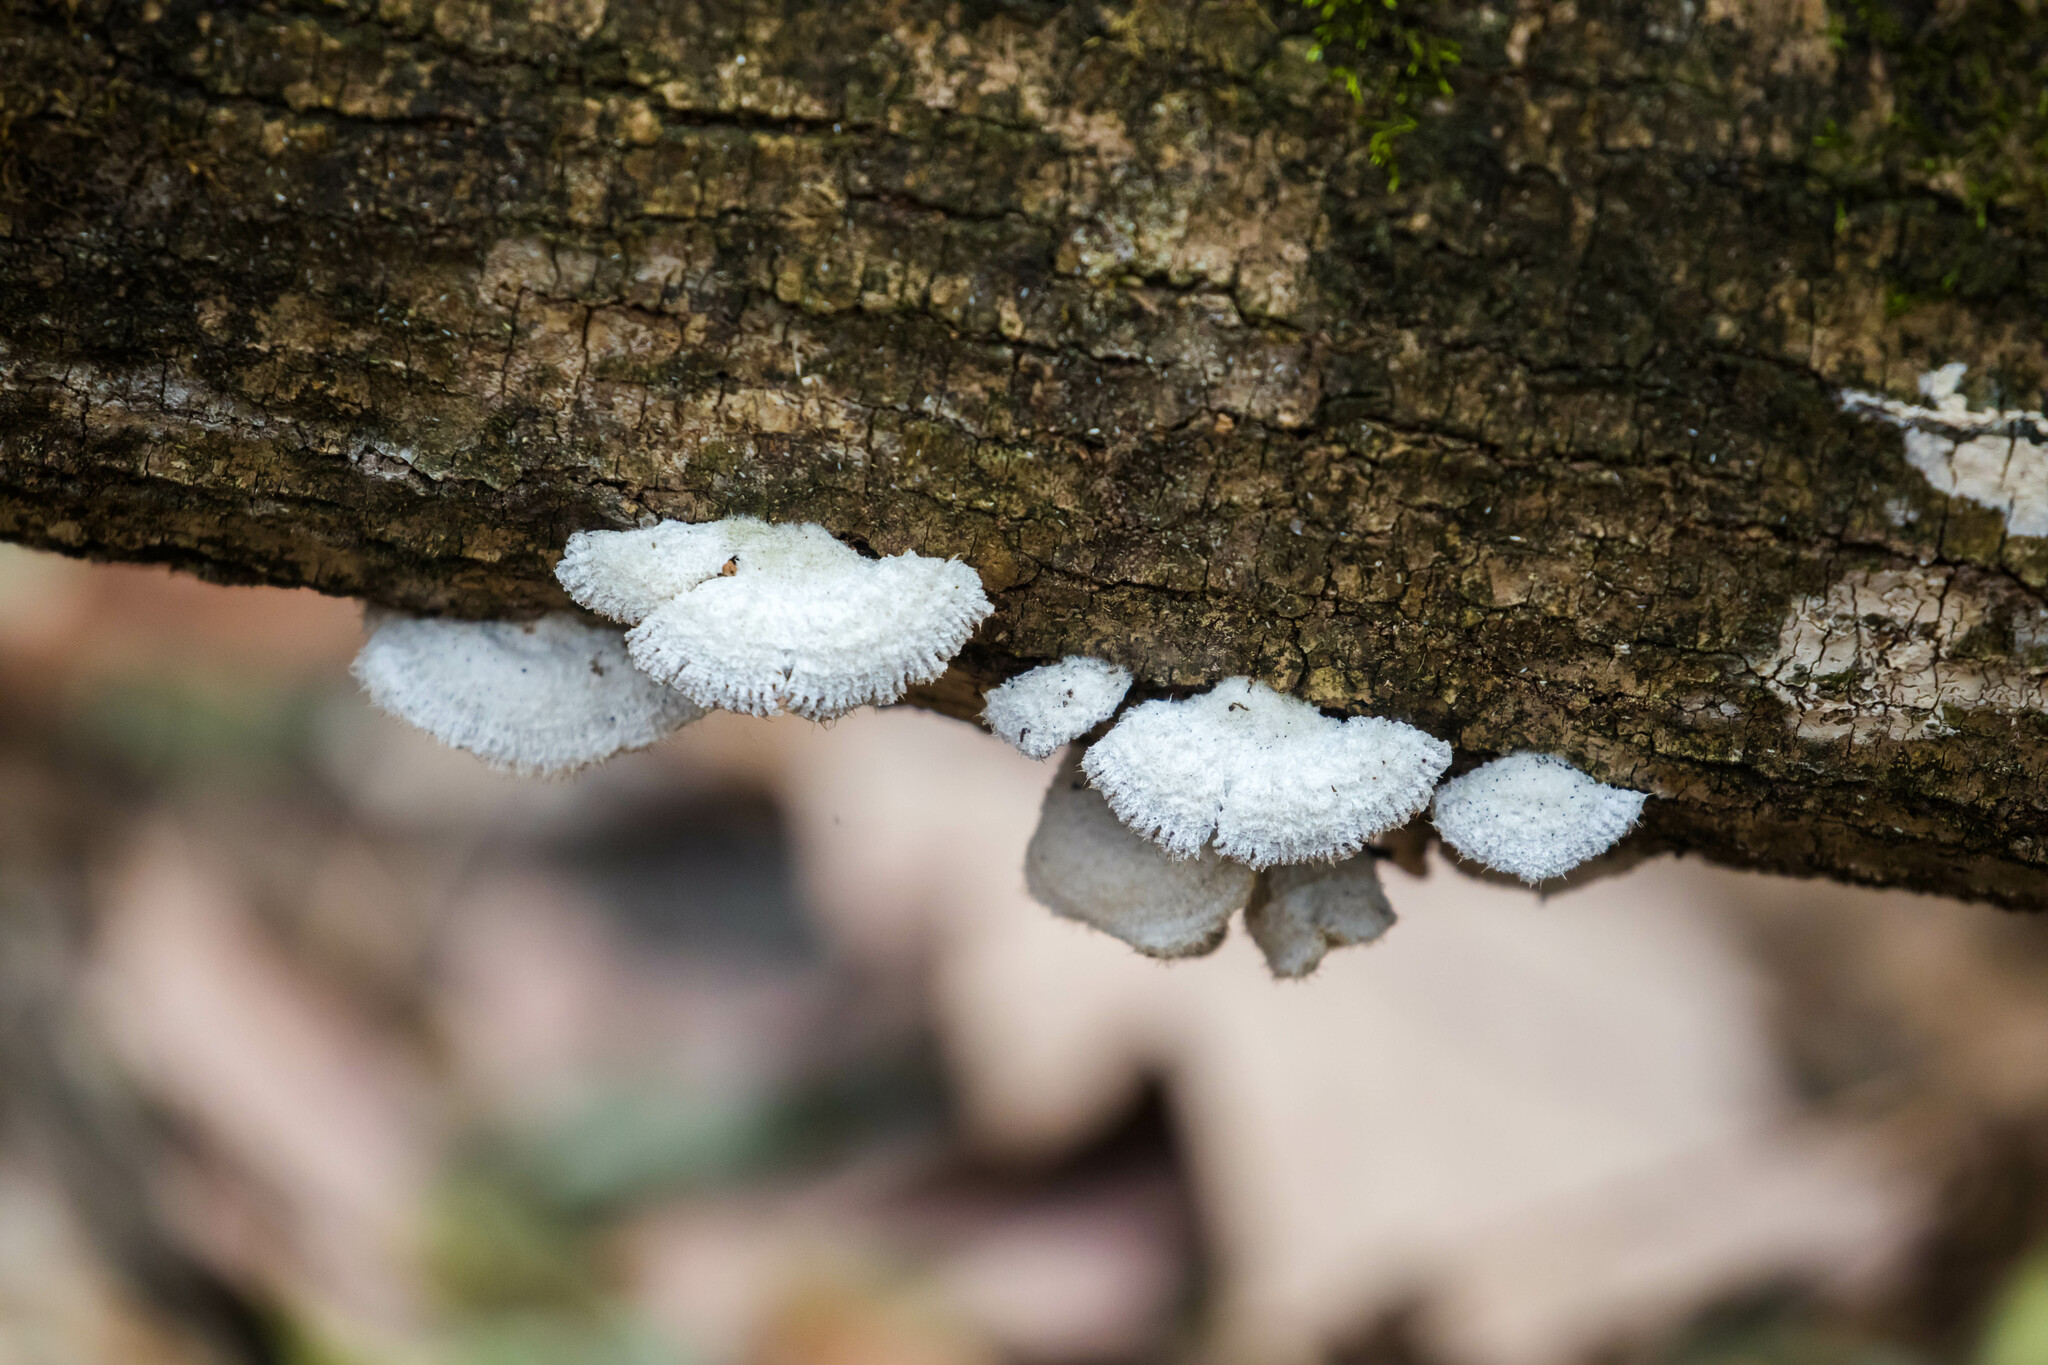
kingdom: Fungi
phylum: Basidiomycota
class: Agaricomycetes
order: Agaricales
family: Schizophyllaceae
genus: Schizophyllum
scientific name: Schizophyllum commune
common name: Common porecrust
